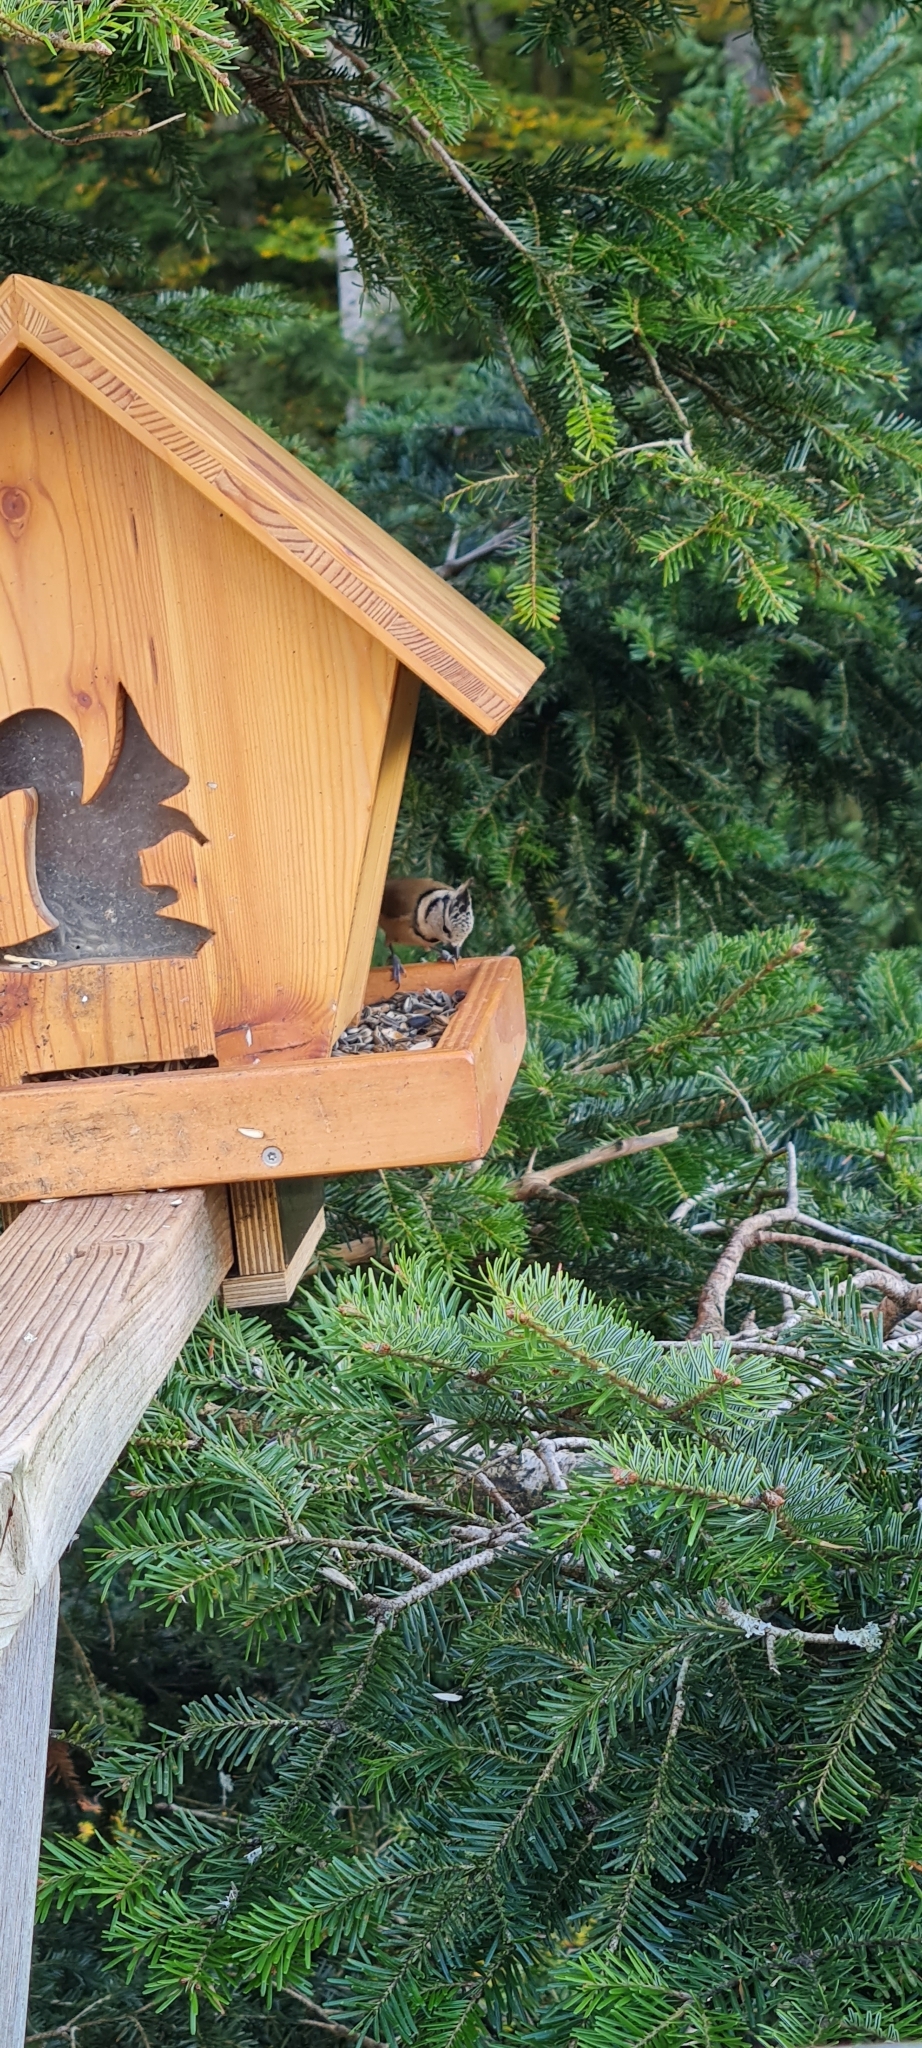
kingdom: Animalia
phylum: Chordata
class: Aves
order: Passeriformes
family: Paridae
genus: Lophophanes
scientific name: Lophophanes cristatus
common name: European crested tit
